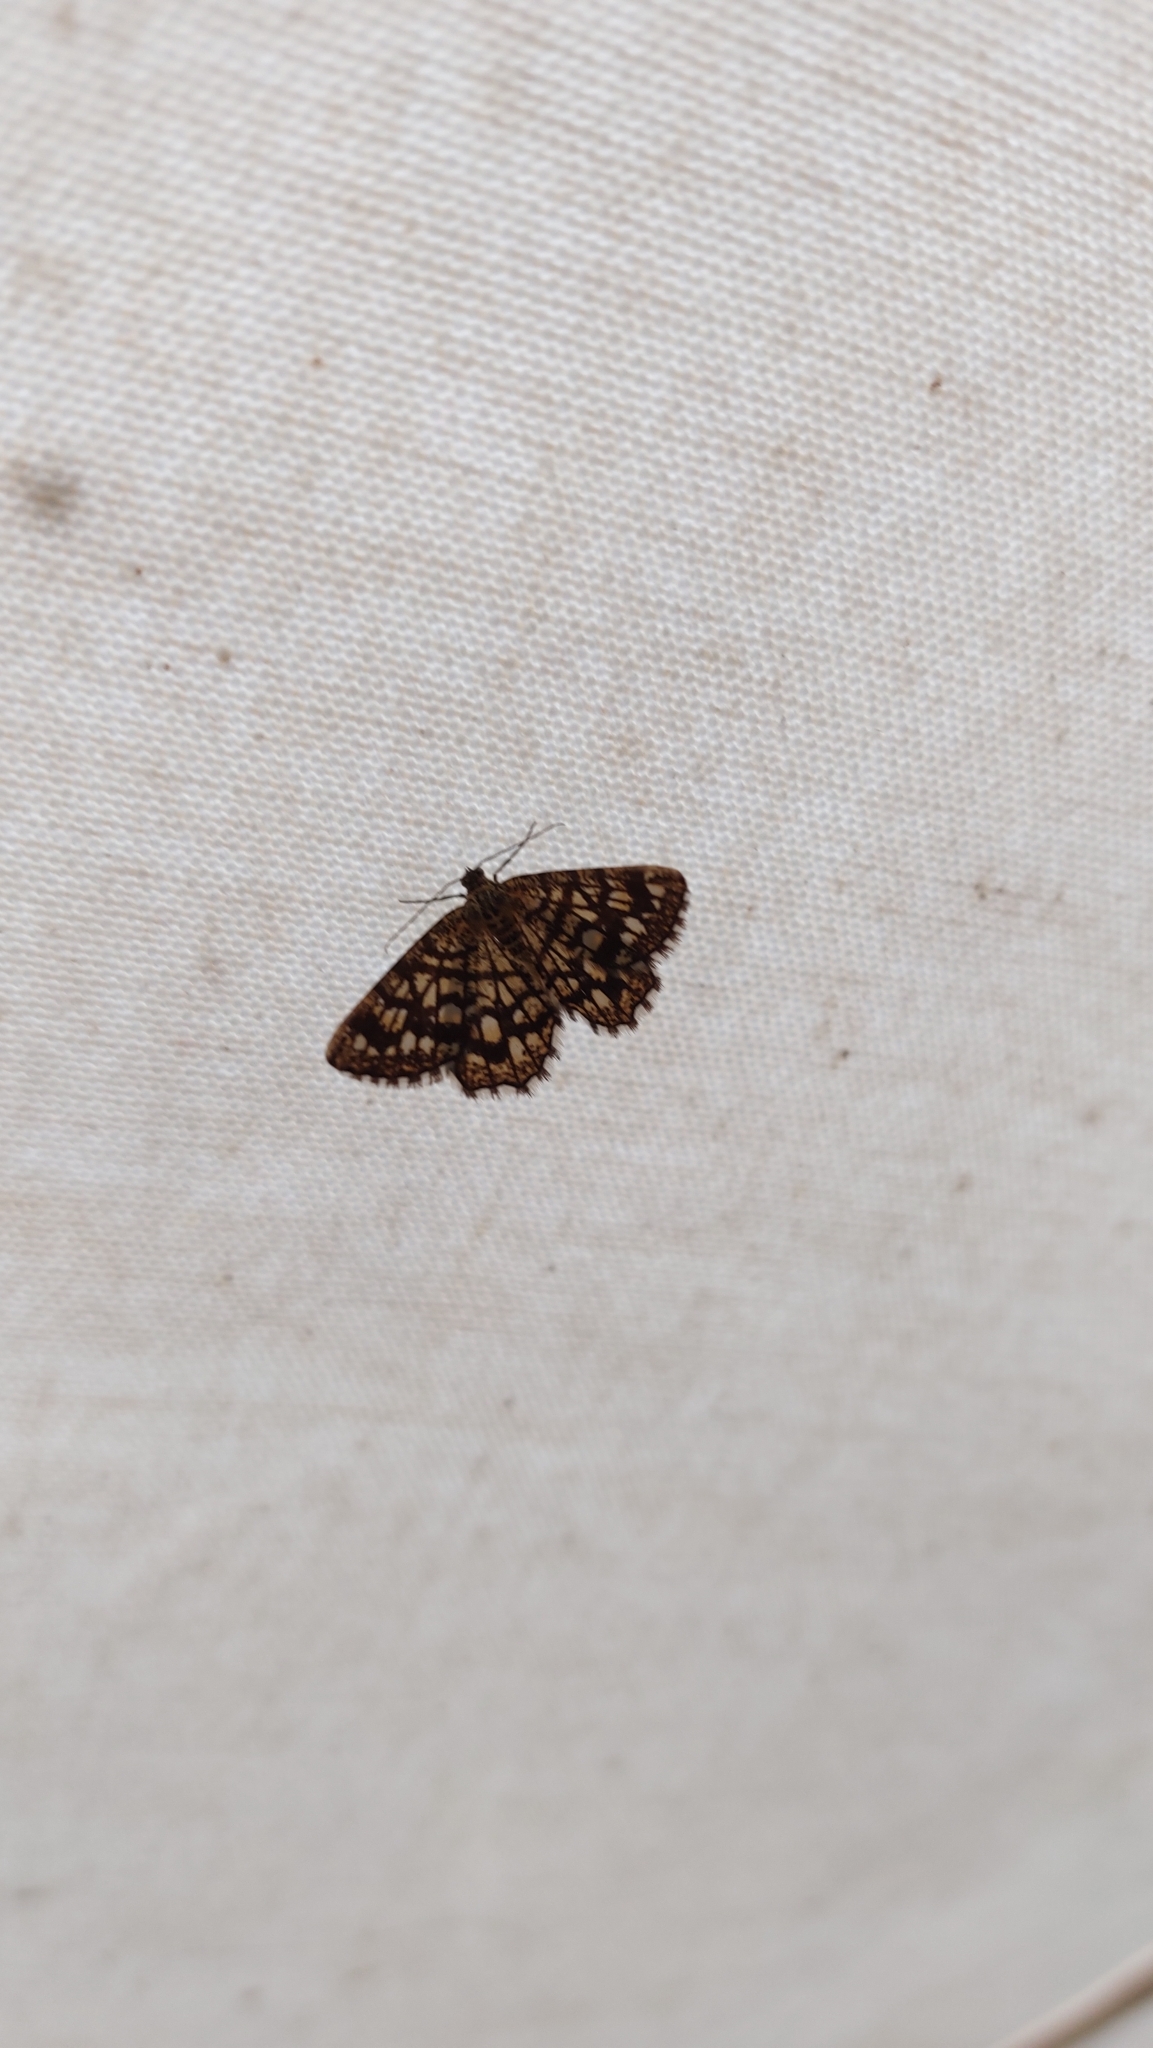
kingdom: Animalia
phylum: Arthropoda
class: Insecta
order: Lepidoptera
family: Geometridae
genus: Chiasmia
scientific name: Chiasmia clathrata
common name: Latticed heath
